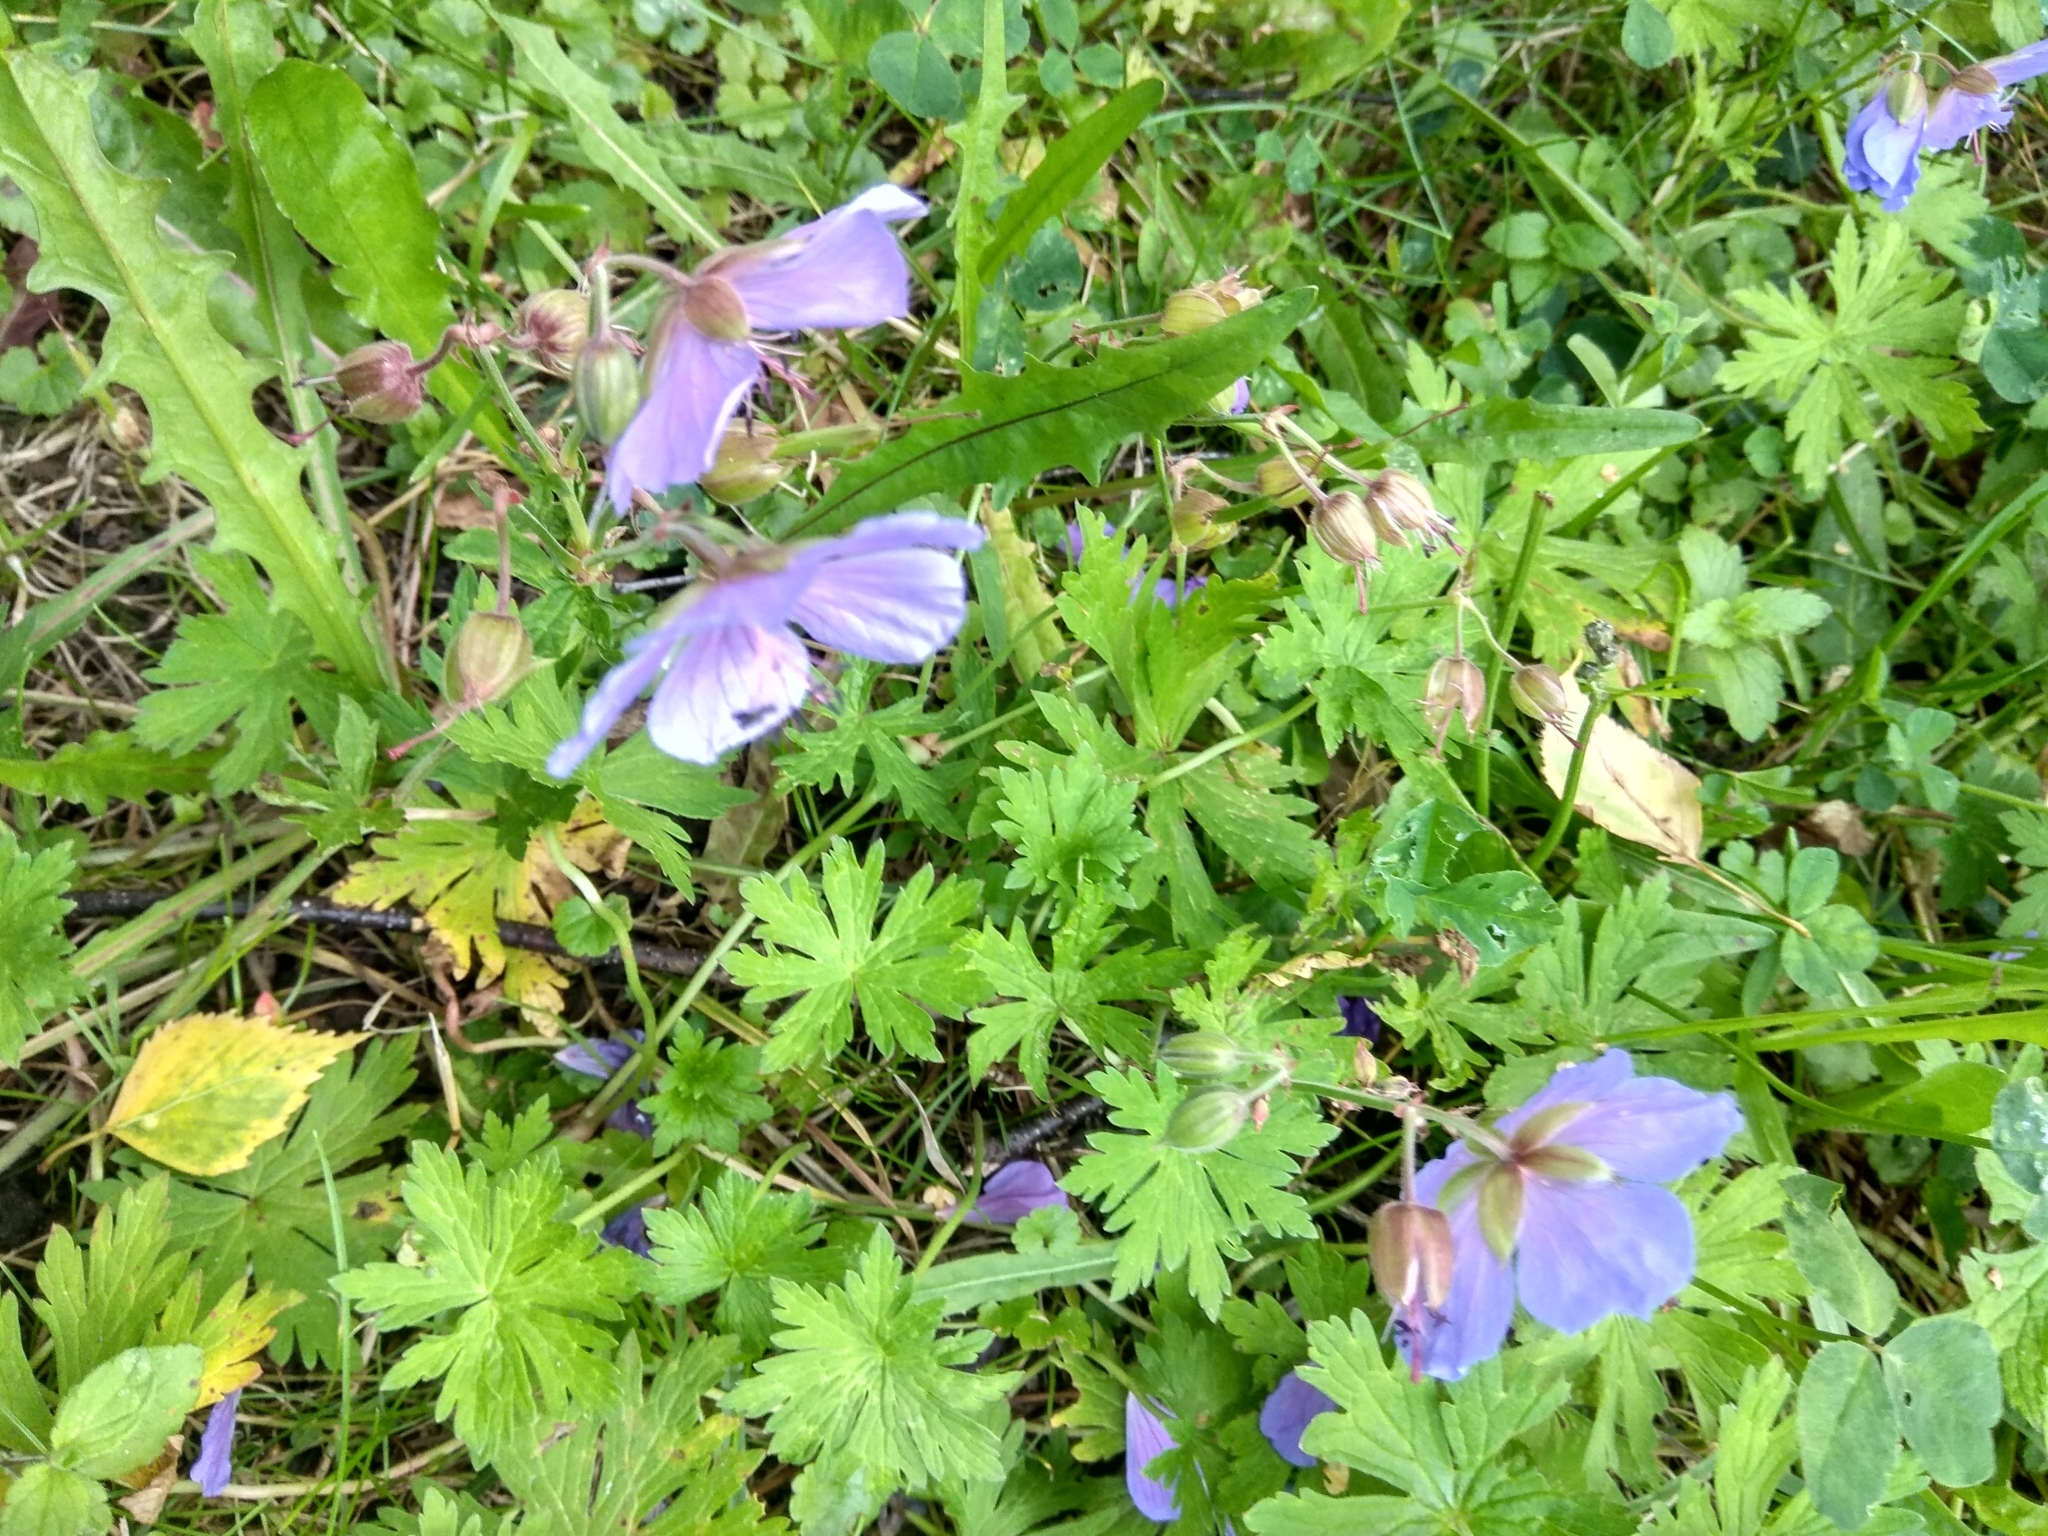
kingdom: Plantae
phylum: Tracheophyta
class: Magnoliopsida
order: Geraniales
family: Geraniaceae
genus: Geranium
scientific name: Geranium pratense
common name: Meadow crane's-bill
